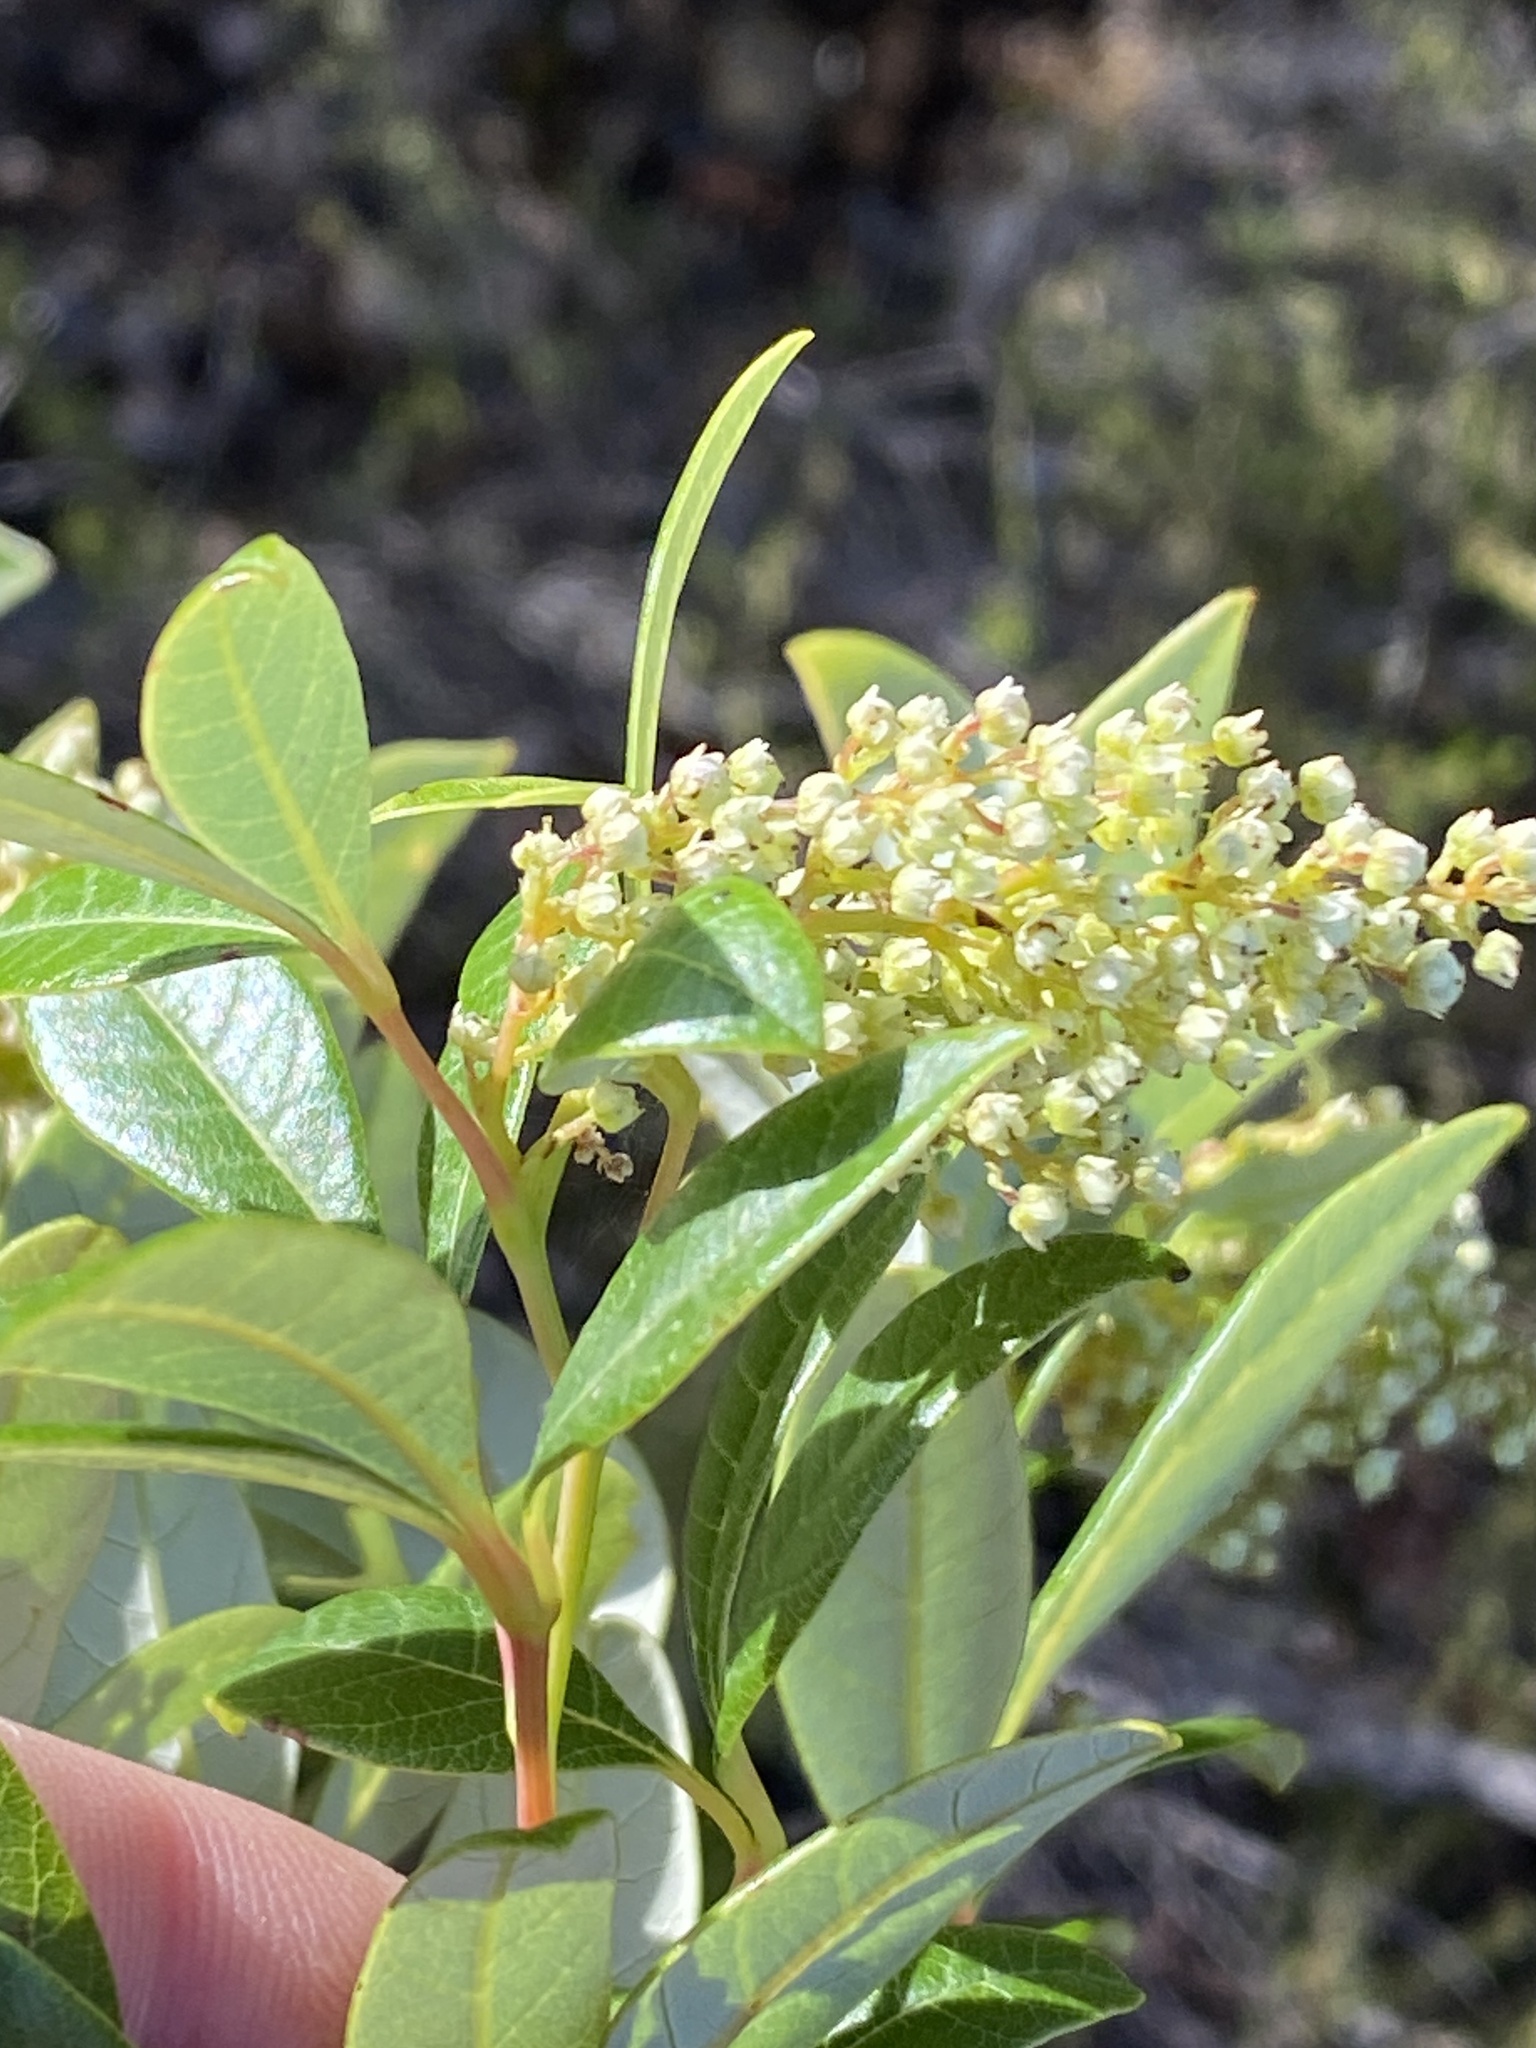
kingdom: Plantae
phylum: Tracheophyta
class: Magnoliopsida
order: Sapindales
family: Anacardiaceae
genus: Searsia
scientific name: Searsia tomentosa
